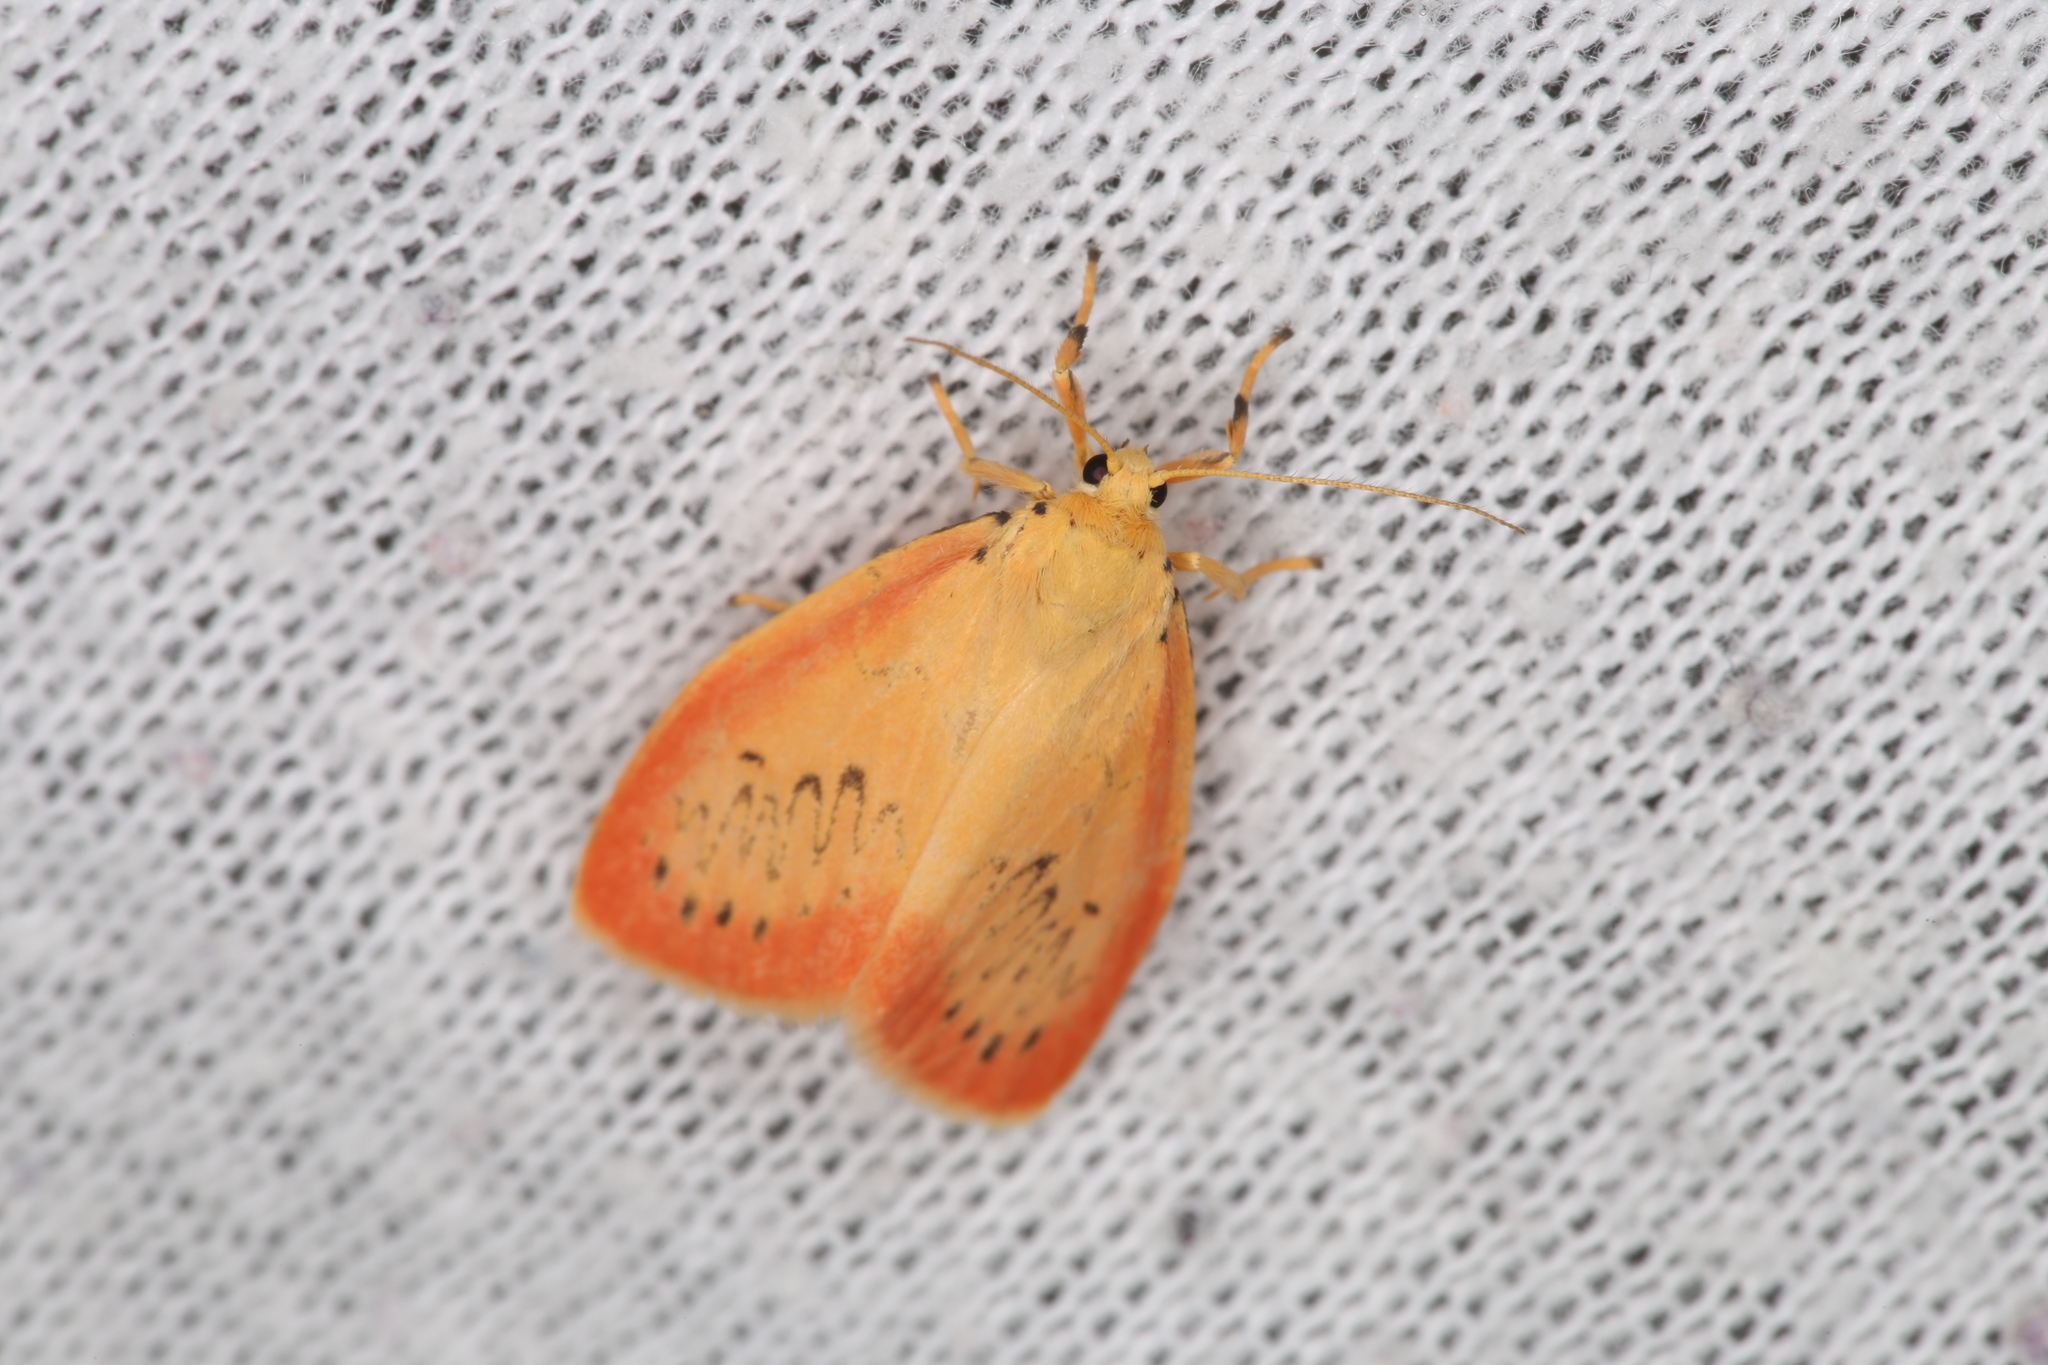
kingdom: Animalia
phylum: Arthropoda
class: Insecta
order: Lepidoptera
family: Erebidae
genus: Miltochrista
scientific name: Miltochrista miniata
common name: Rosy footman
